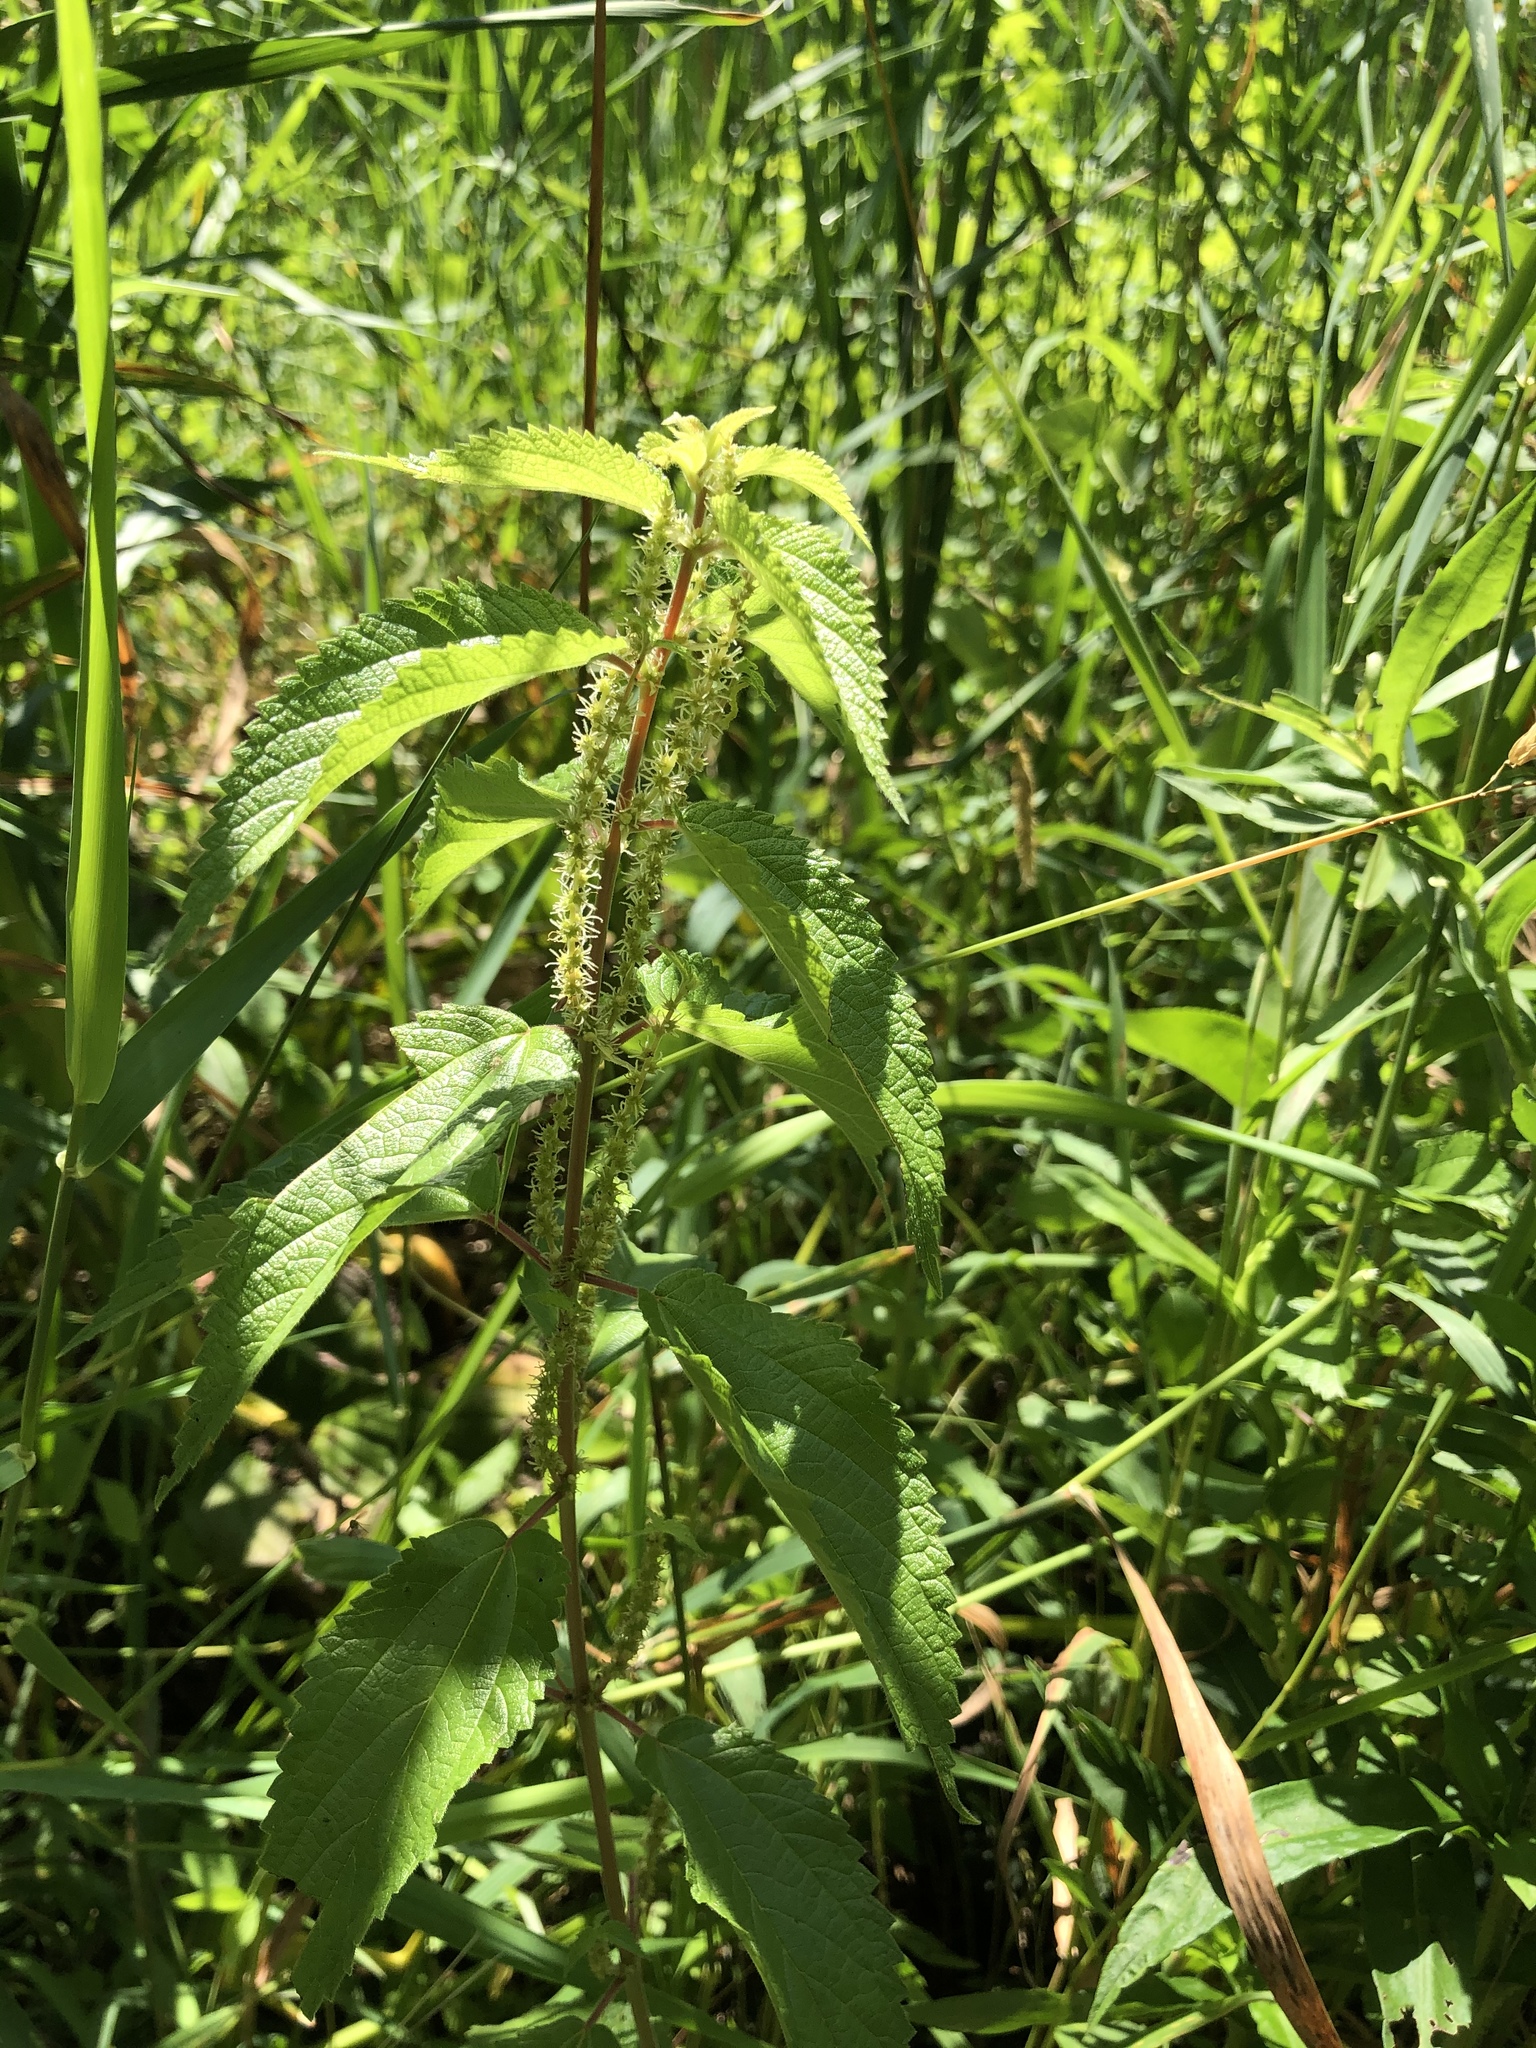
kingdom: Plantae
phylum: Tracheophyta
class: Magnoliopsida
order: Rosales
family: Urticaceae
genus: Boehmeria
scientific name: Boehmeria cylindrica
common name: Bog-hemp
